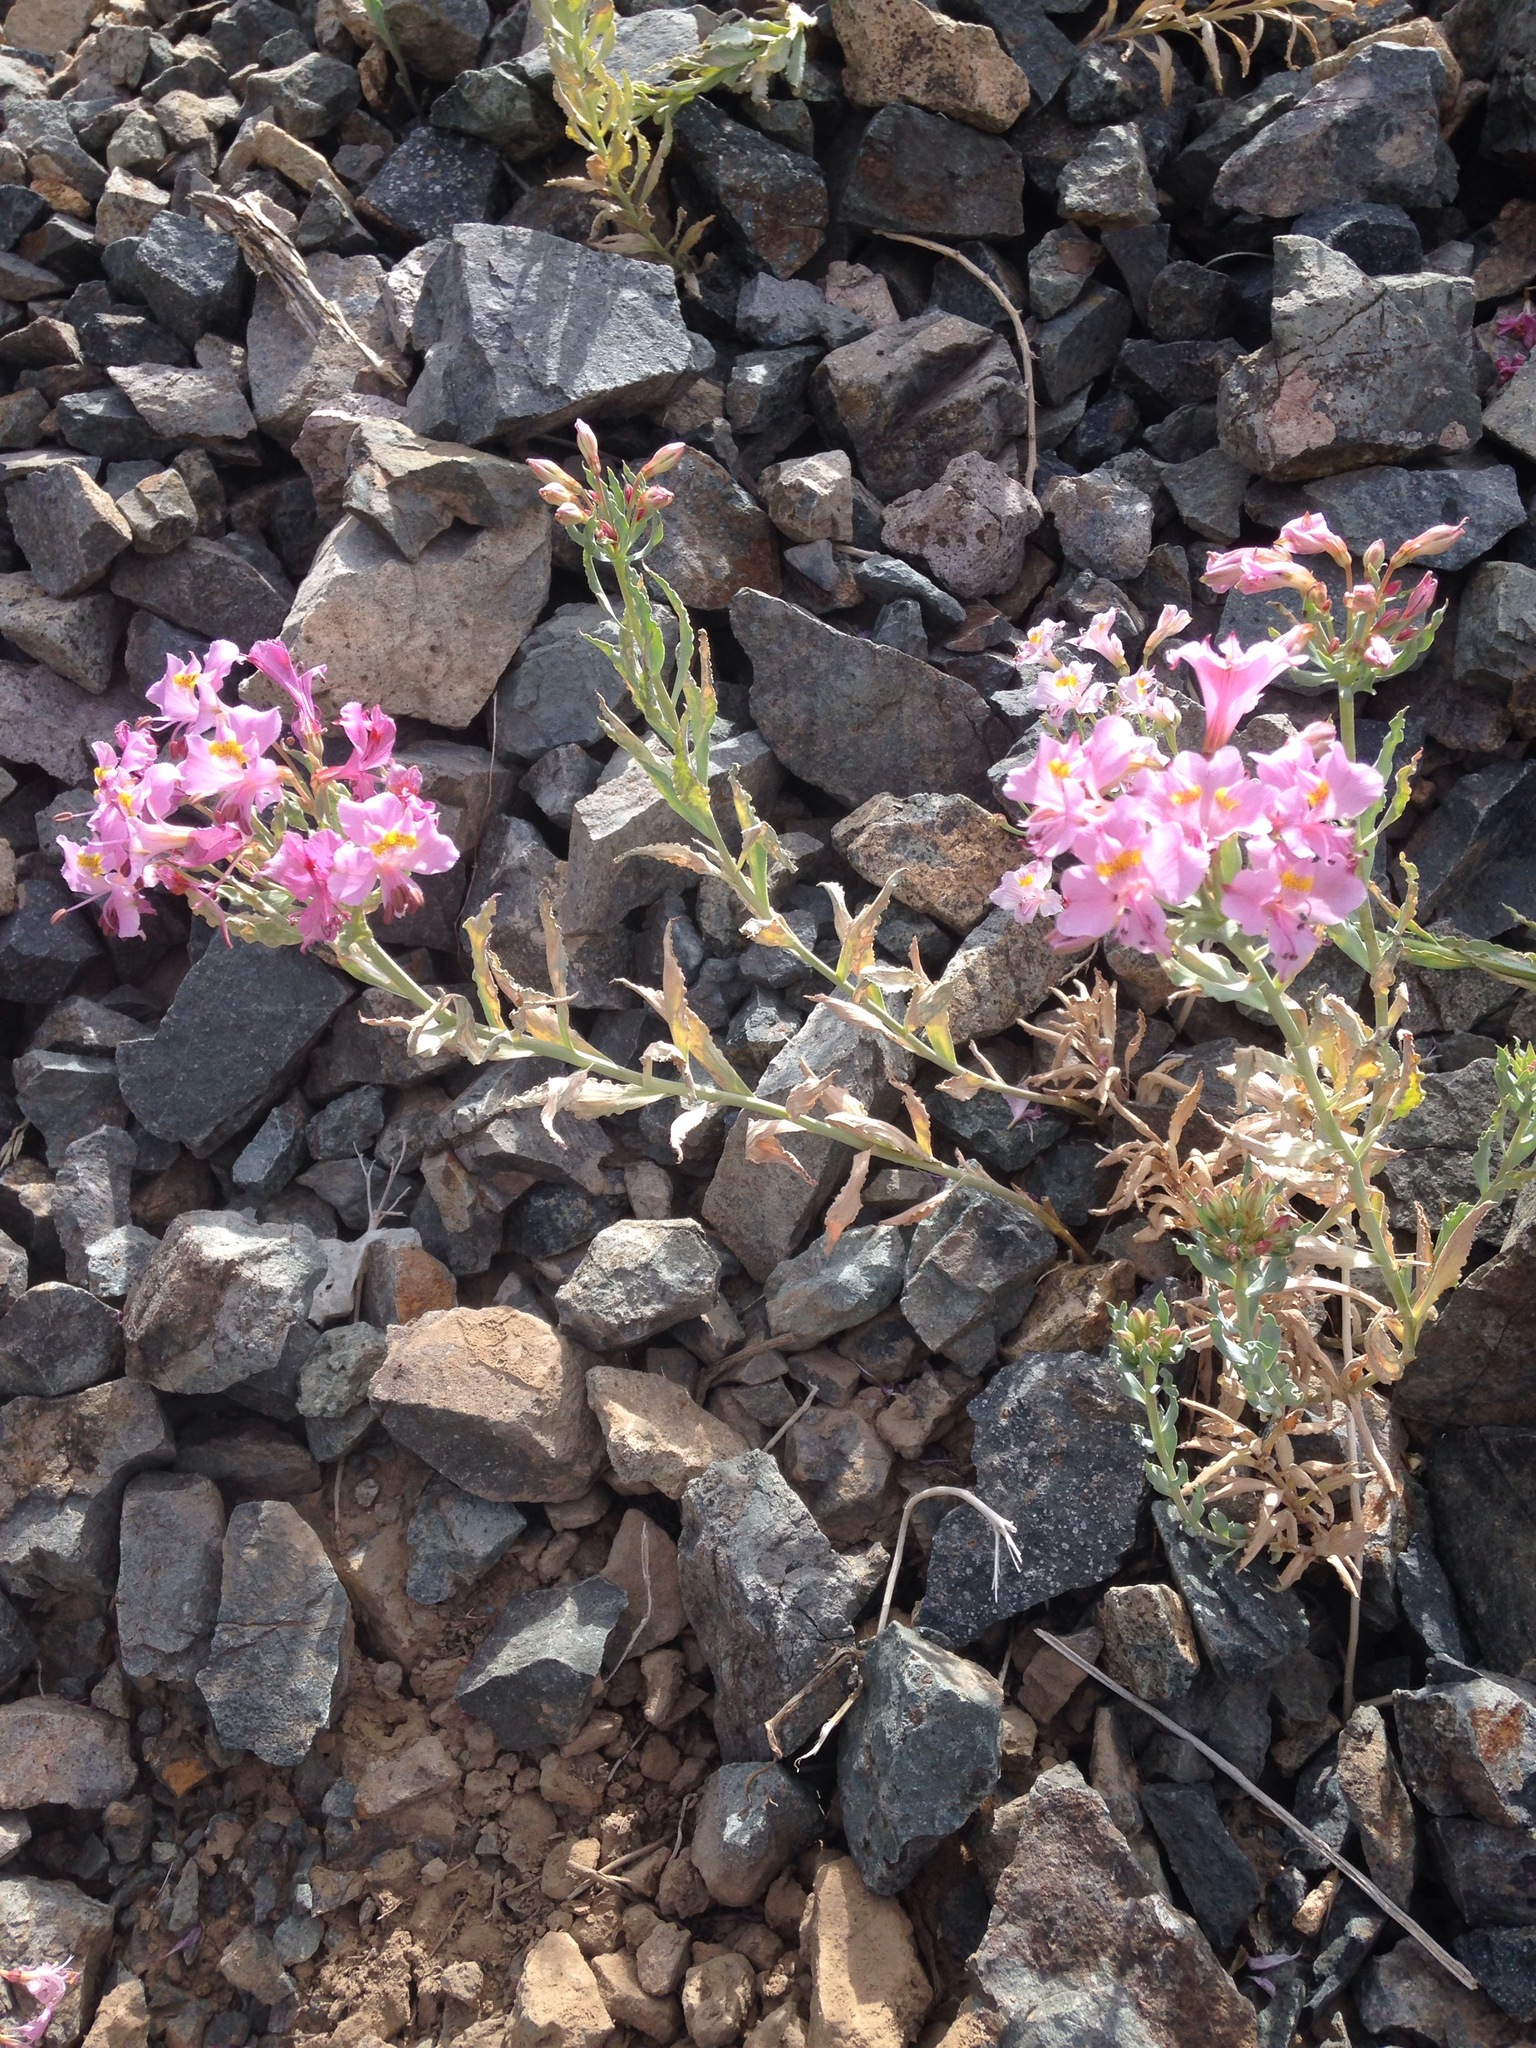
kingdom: Plantae
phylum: Tracheophyta
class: Liliopsida
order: Liliales
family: Alstroemeriaceae
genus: Alstroemeria
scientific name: Alstroemeria crispata
